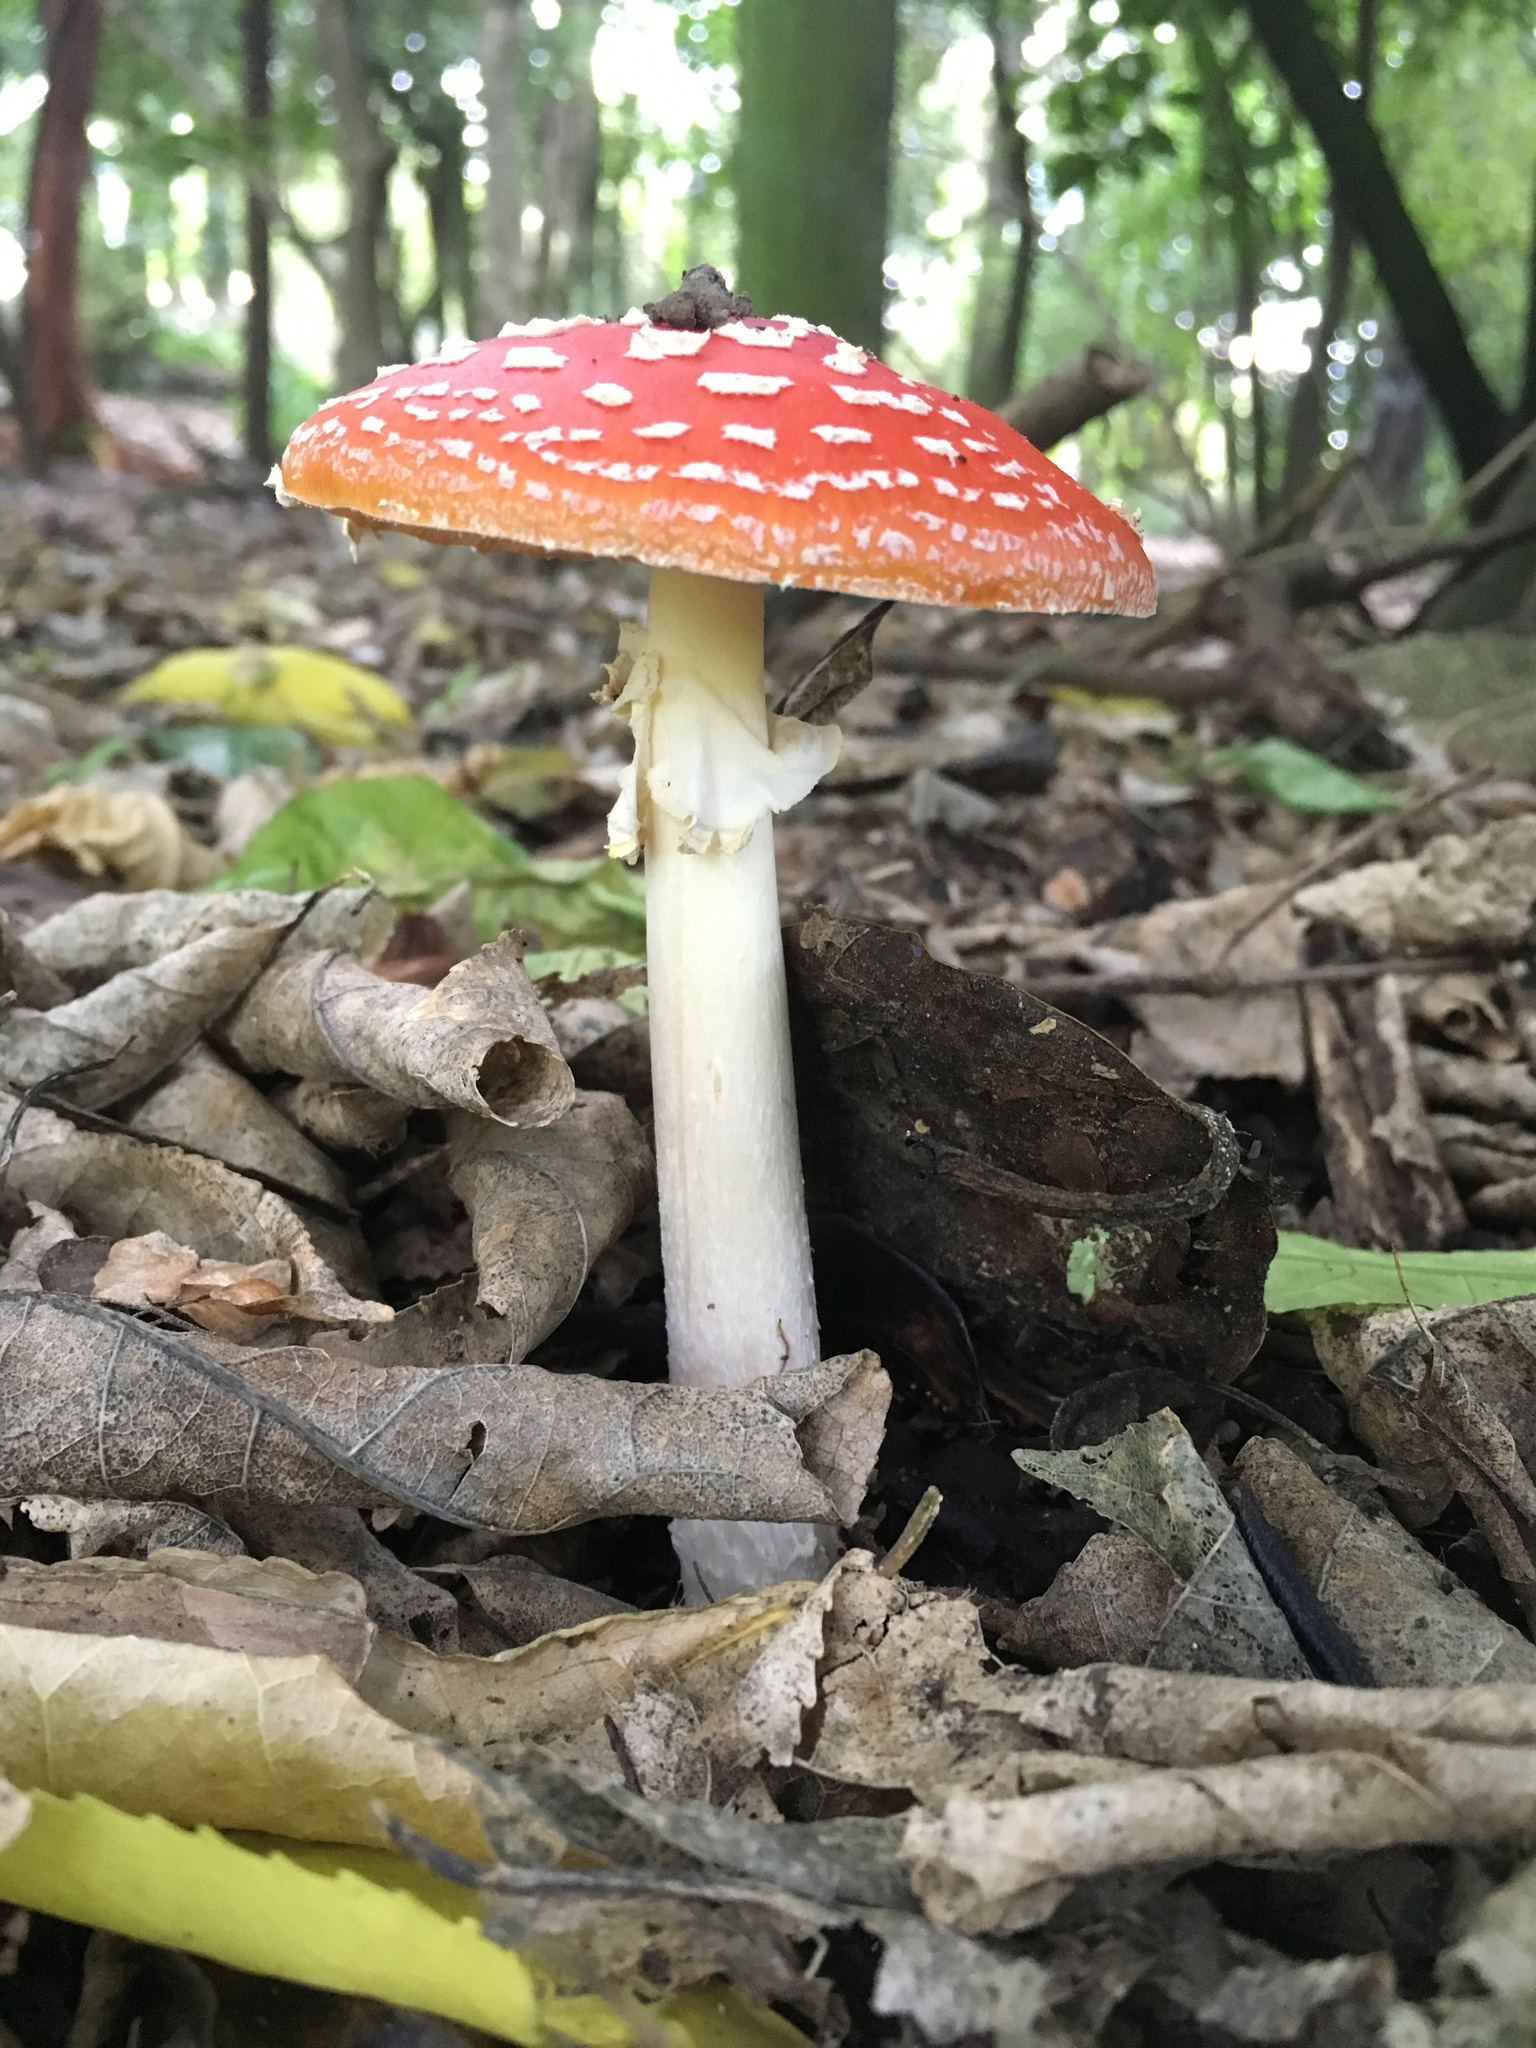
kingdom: Fungi
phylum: Basidiomycota
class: Agaricomycetes
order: Agaricales
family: Amanitaceae
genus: Amanita
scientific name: Amanita muscaria
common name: Fly agaric
